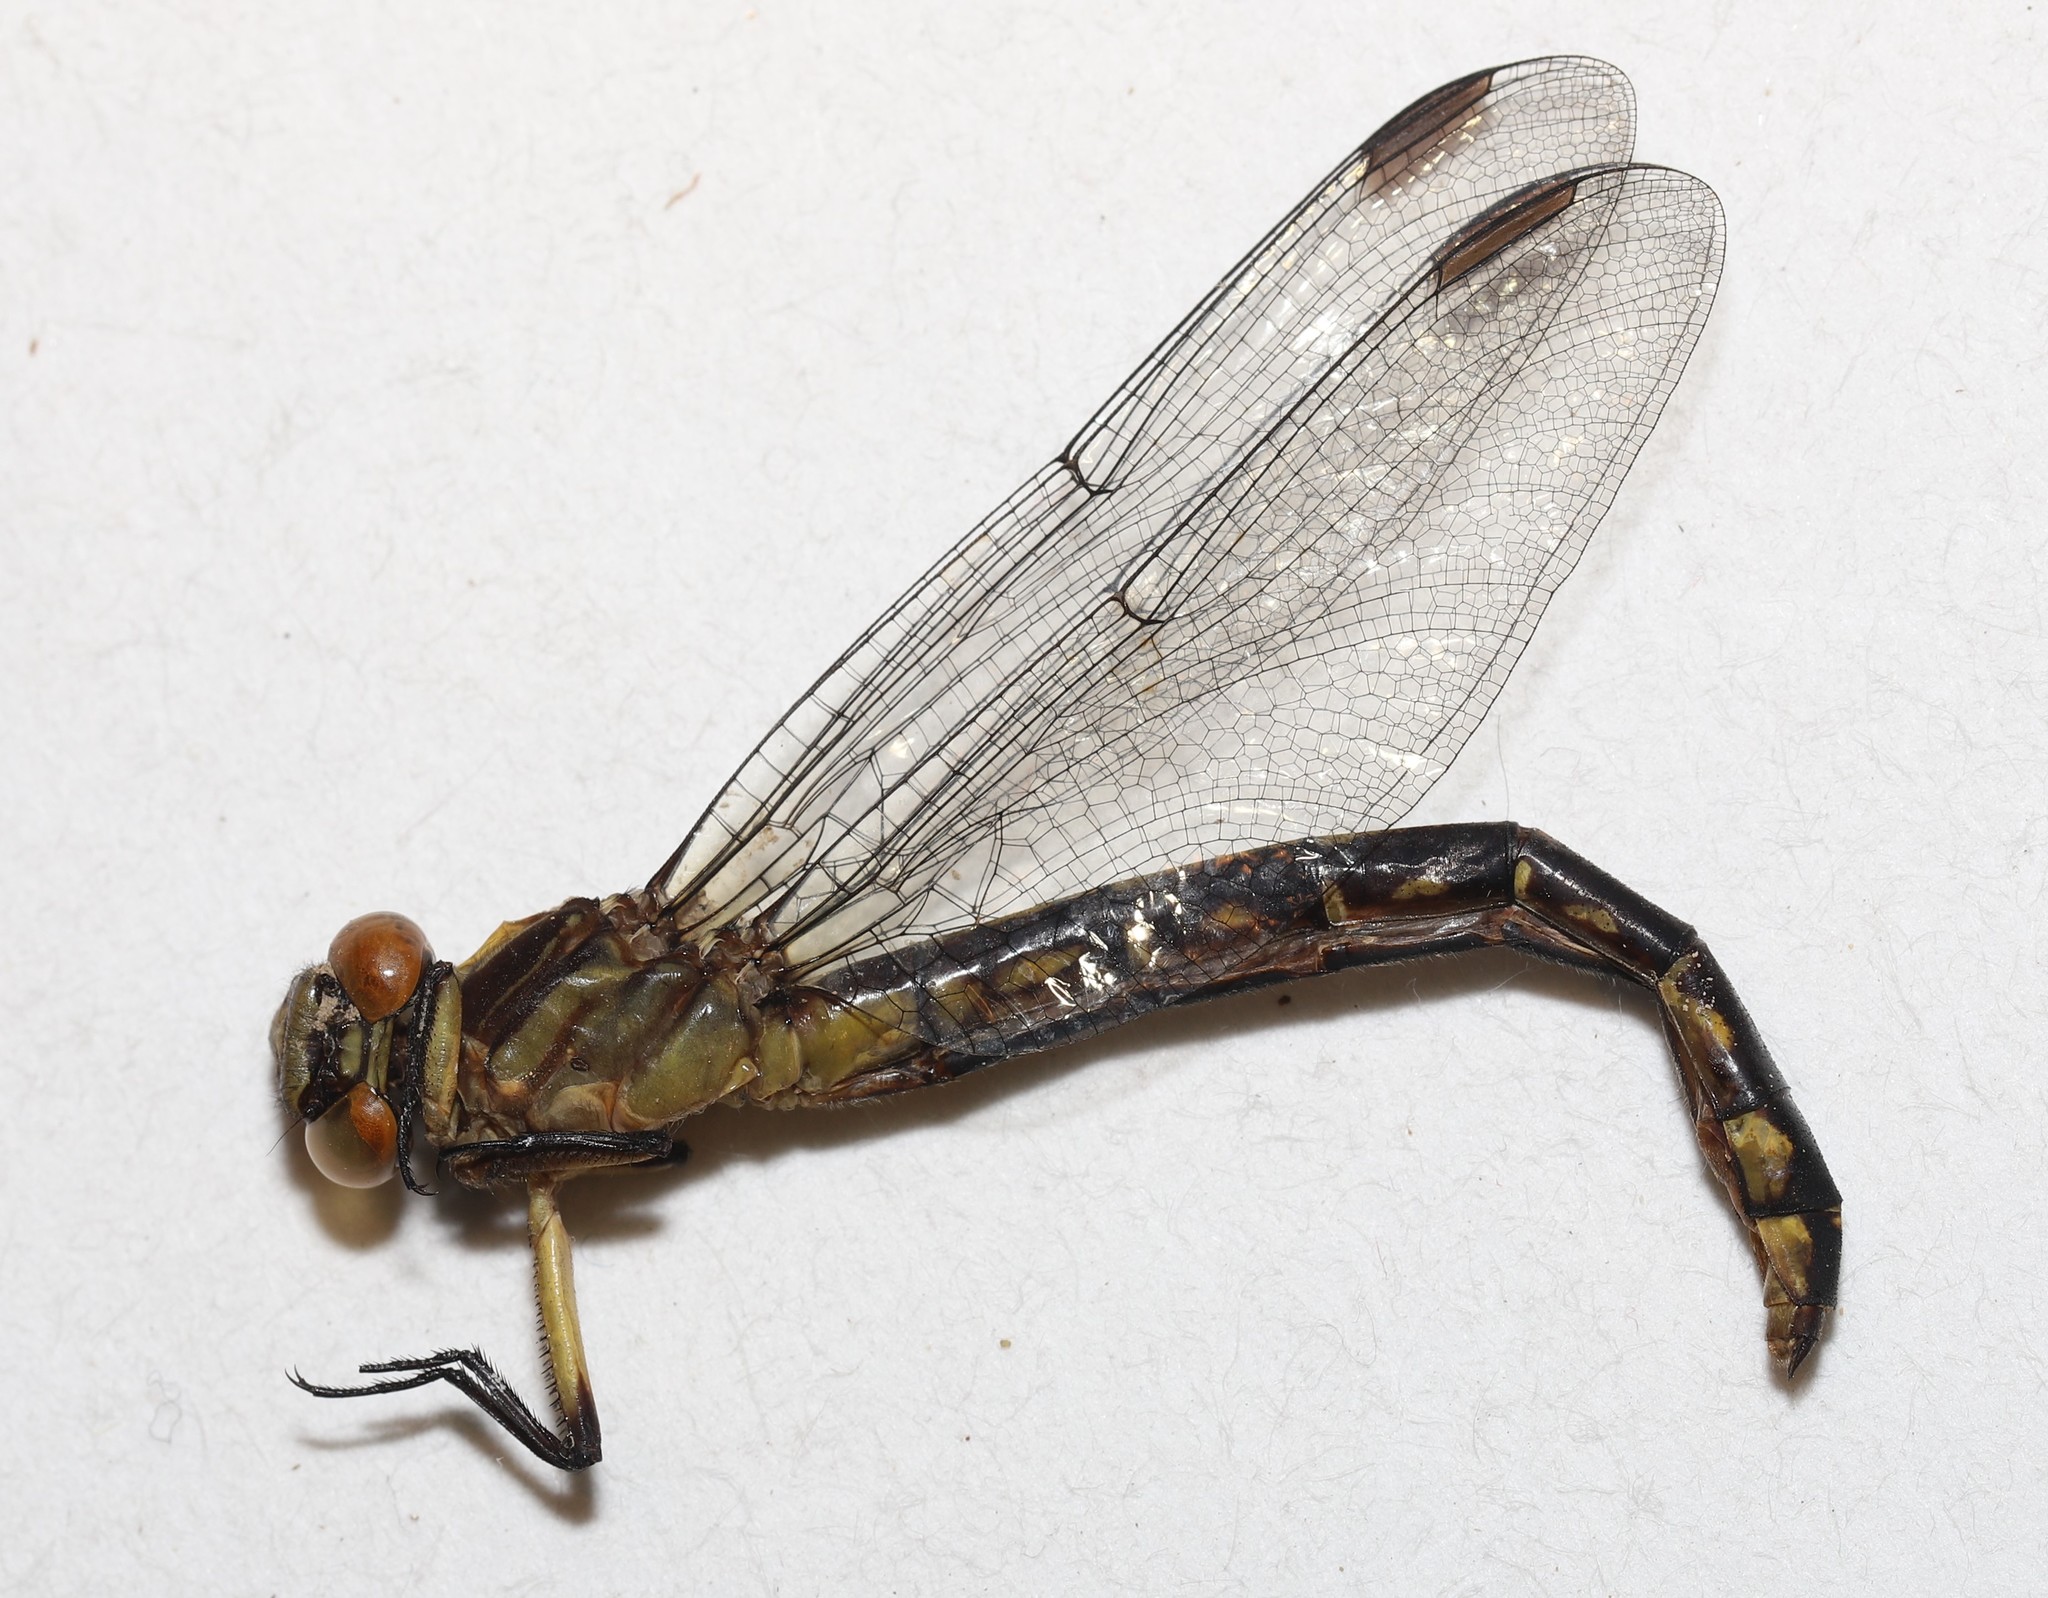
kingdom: Animalia
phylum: Arthropoda
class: Insecta
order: Odonata
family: Gomphidae
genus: Stylurus
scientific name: Stylurus laurae
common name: Laura's clubtail
